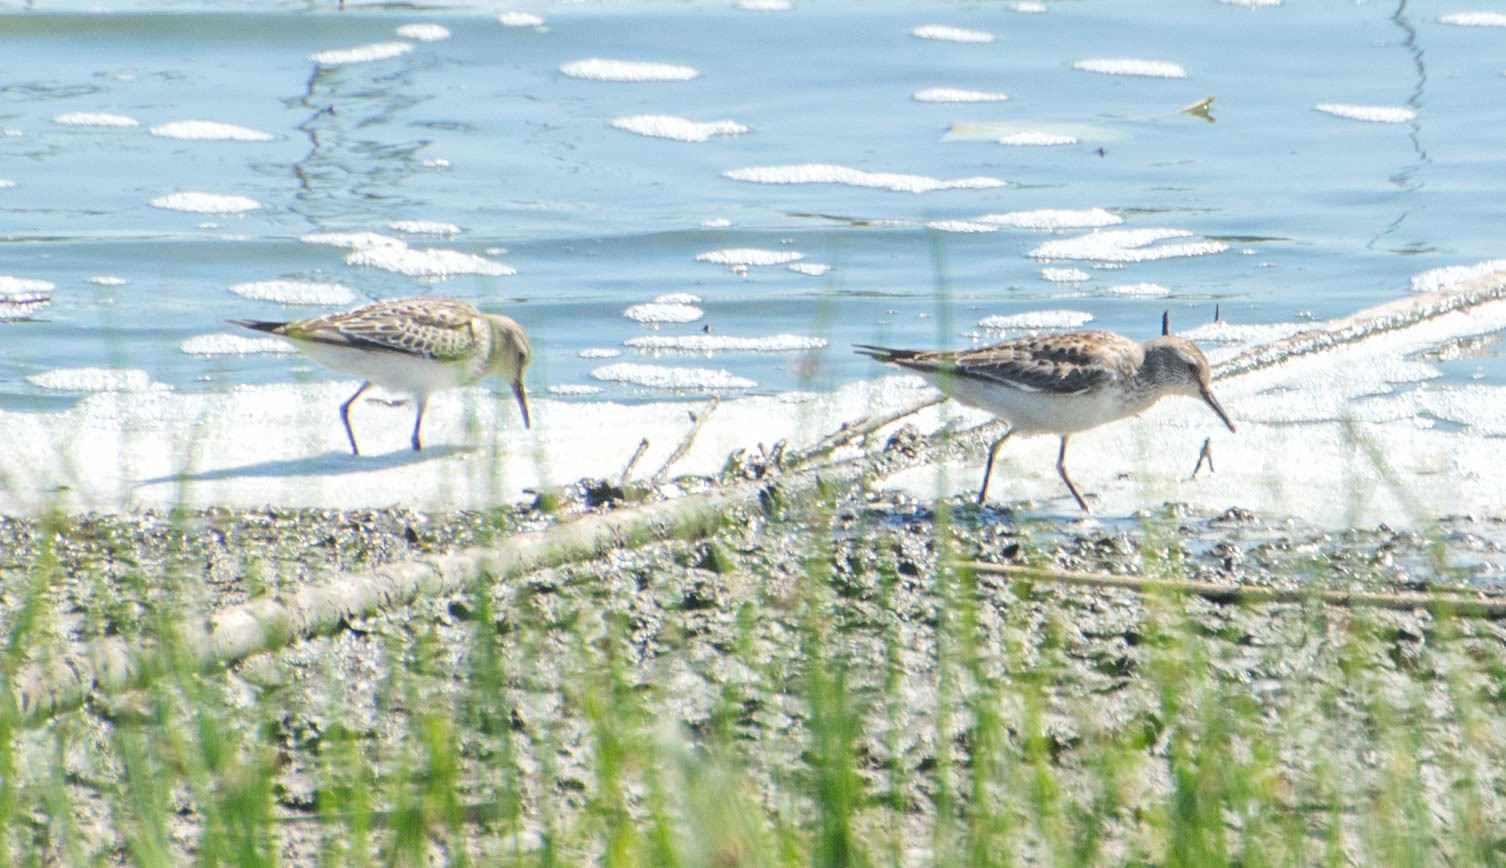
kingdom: Animalia
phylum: Chordata
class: Aves
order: Charadriiformes
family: Scolopacidae
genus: Calidris
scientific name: Calidris fuscicollis
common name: White-rumped sandpiper
